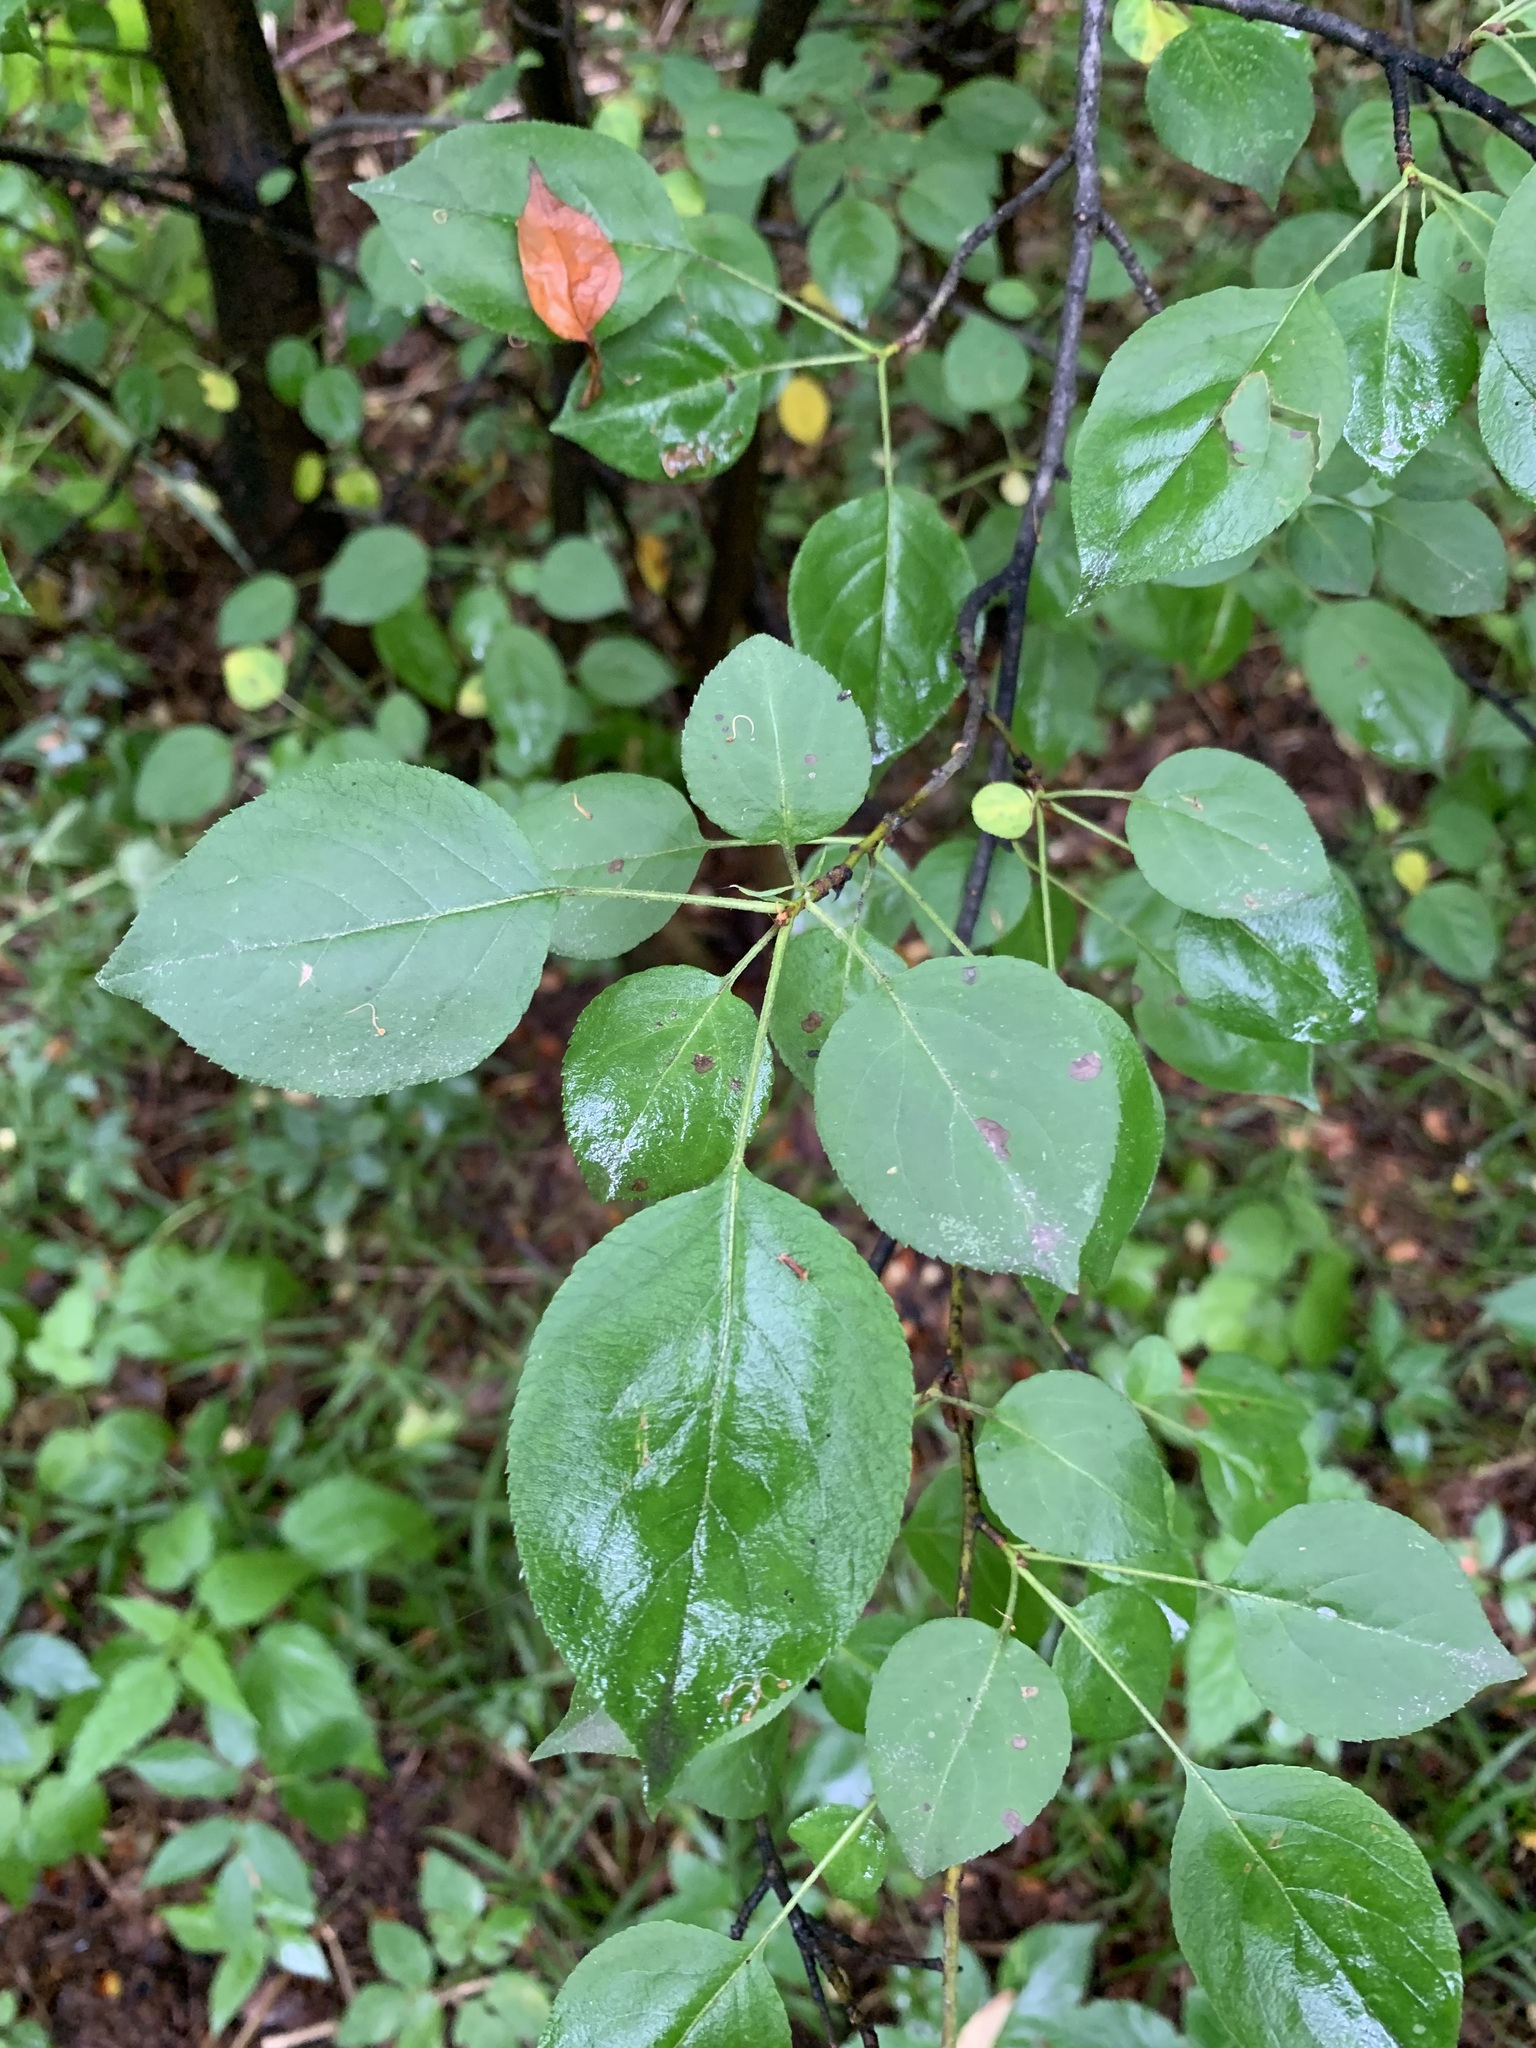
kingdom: Plantae
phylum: Tracheophyta
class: Magnoliopsida
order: Rosales
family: Rosaceae
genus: Malus
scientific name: Malus baccata
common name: Siberian crab
